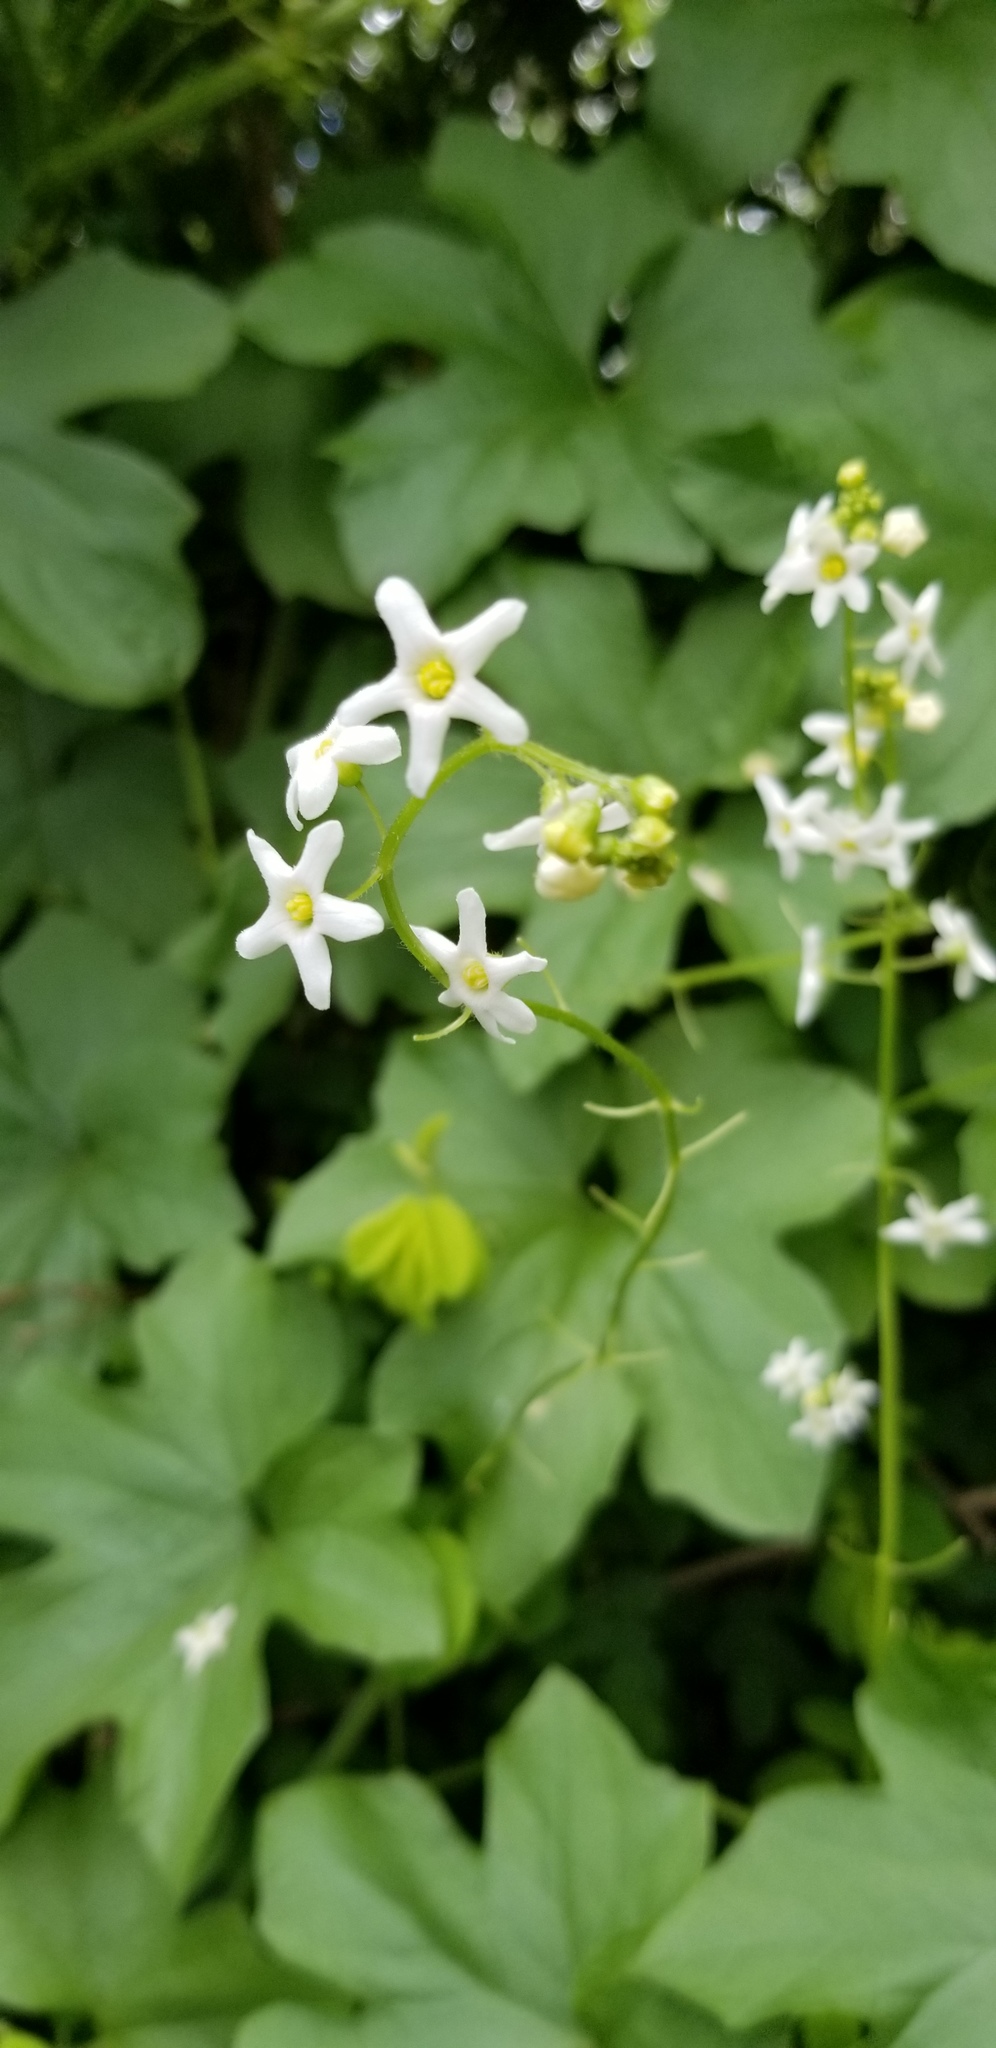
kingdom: Plantae
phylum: Tracheophyta
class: Magnoliopsida
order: Cucurbitales
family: Cucurbitaceae
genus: Marah
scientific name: Marah oregana
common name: Coastal manroot
